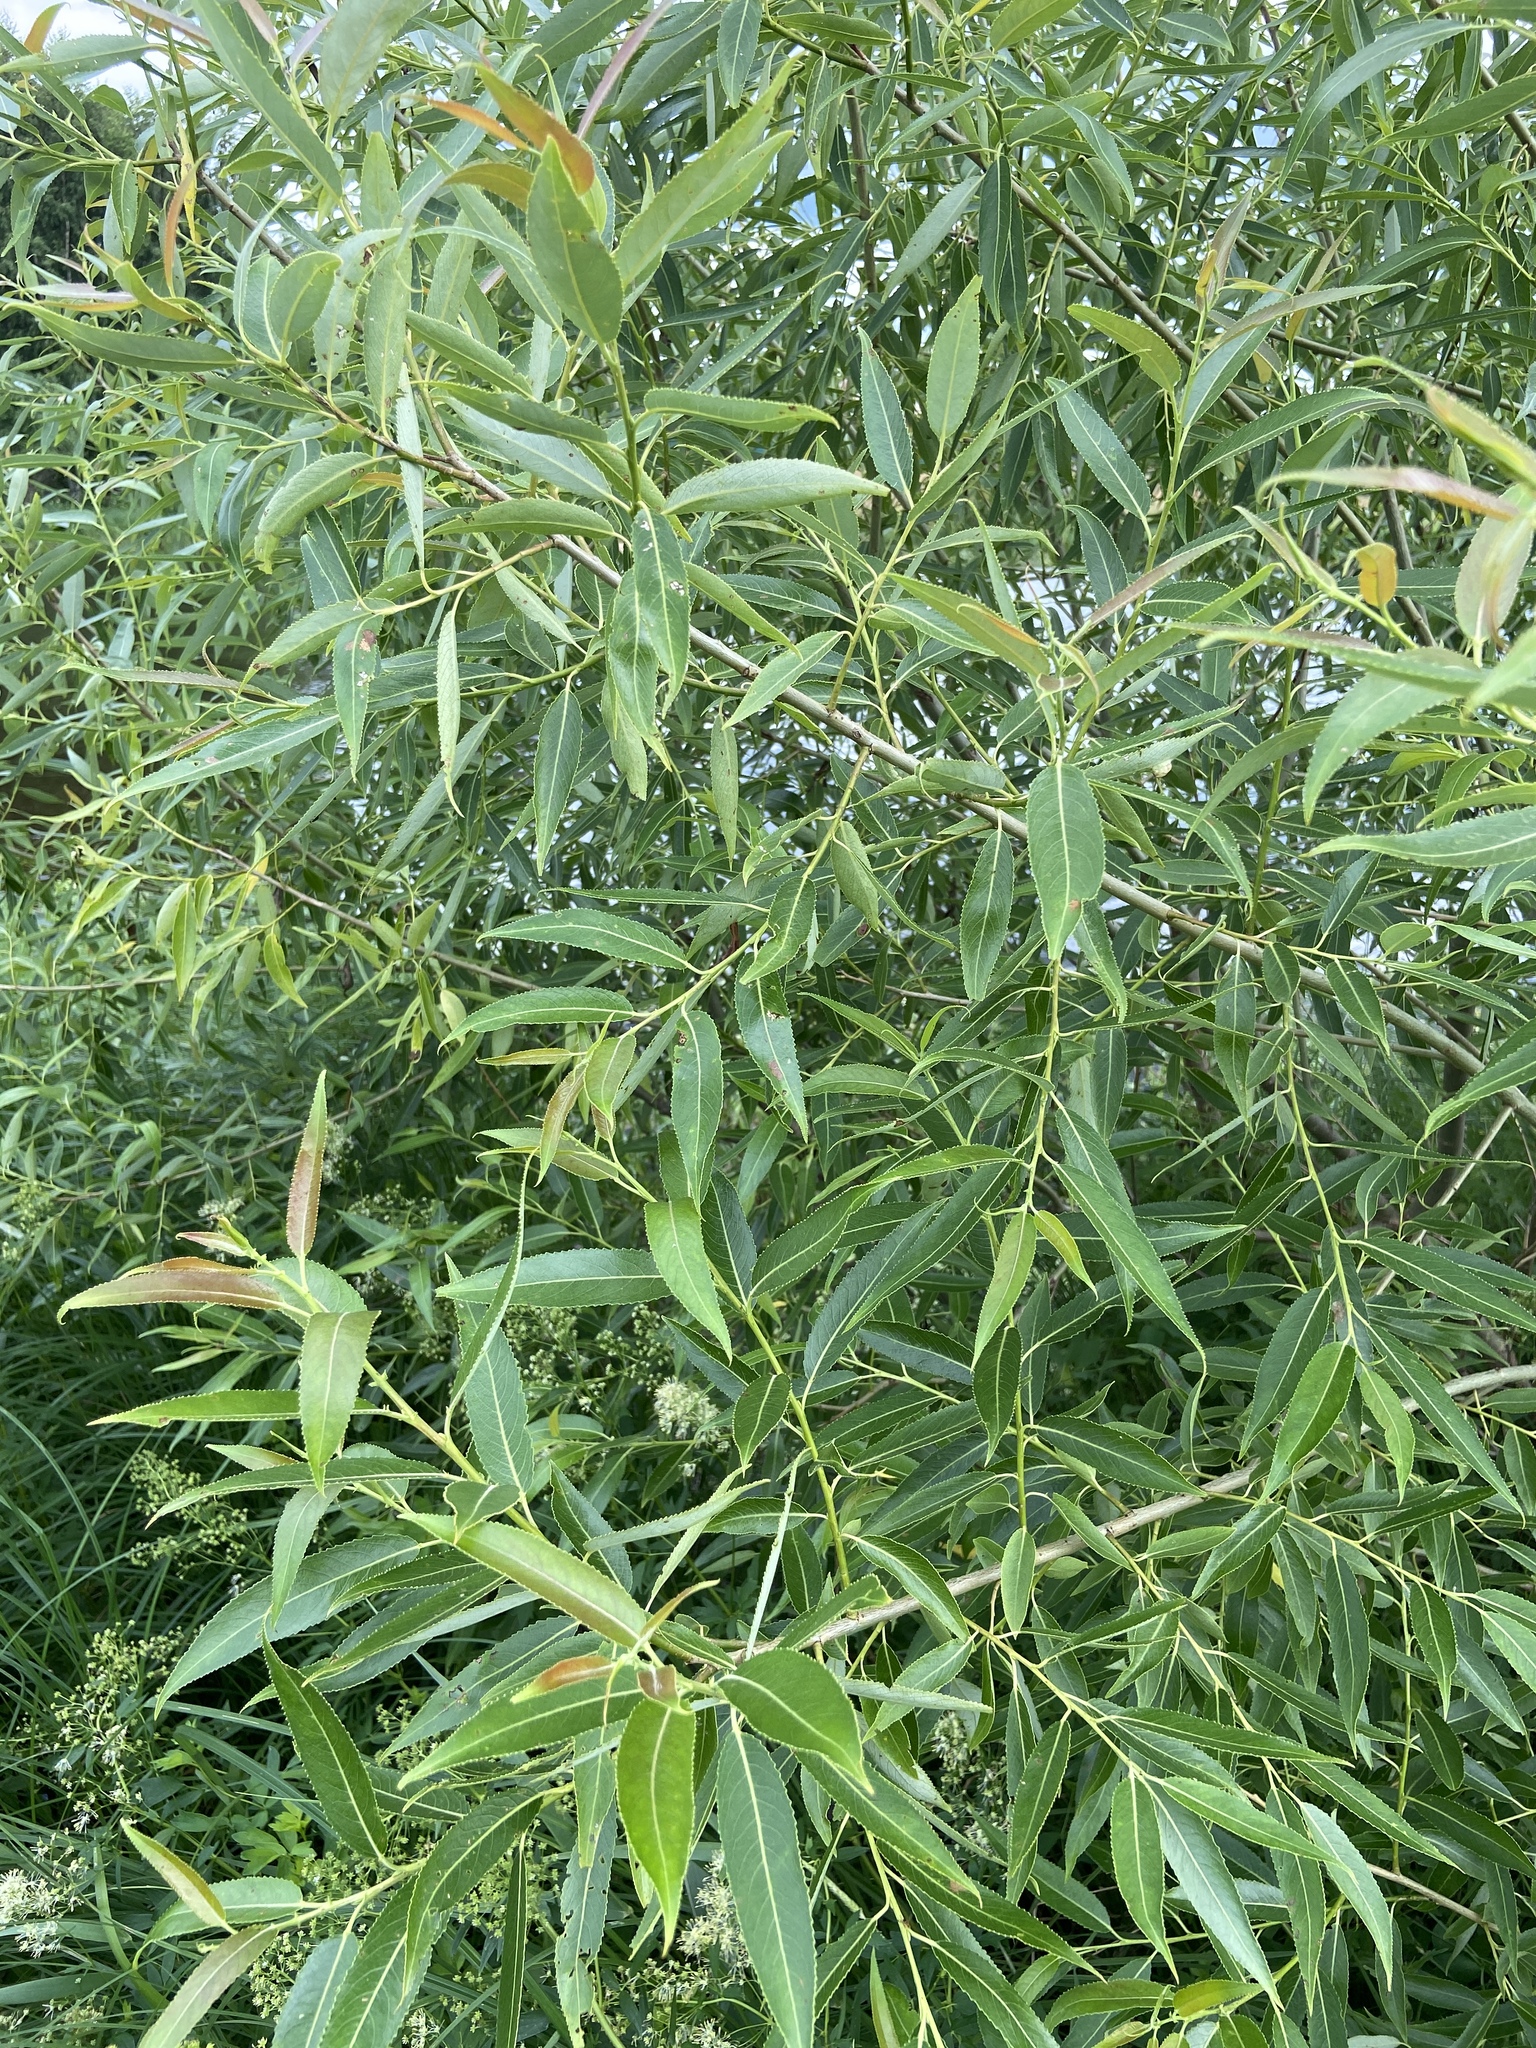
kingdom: Plantae
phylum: Tracheophyta
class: Magnoliopsida
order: Malpighiales
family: Salicaceae
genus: Salix
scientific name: Salix triandra
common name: Almond willow
